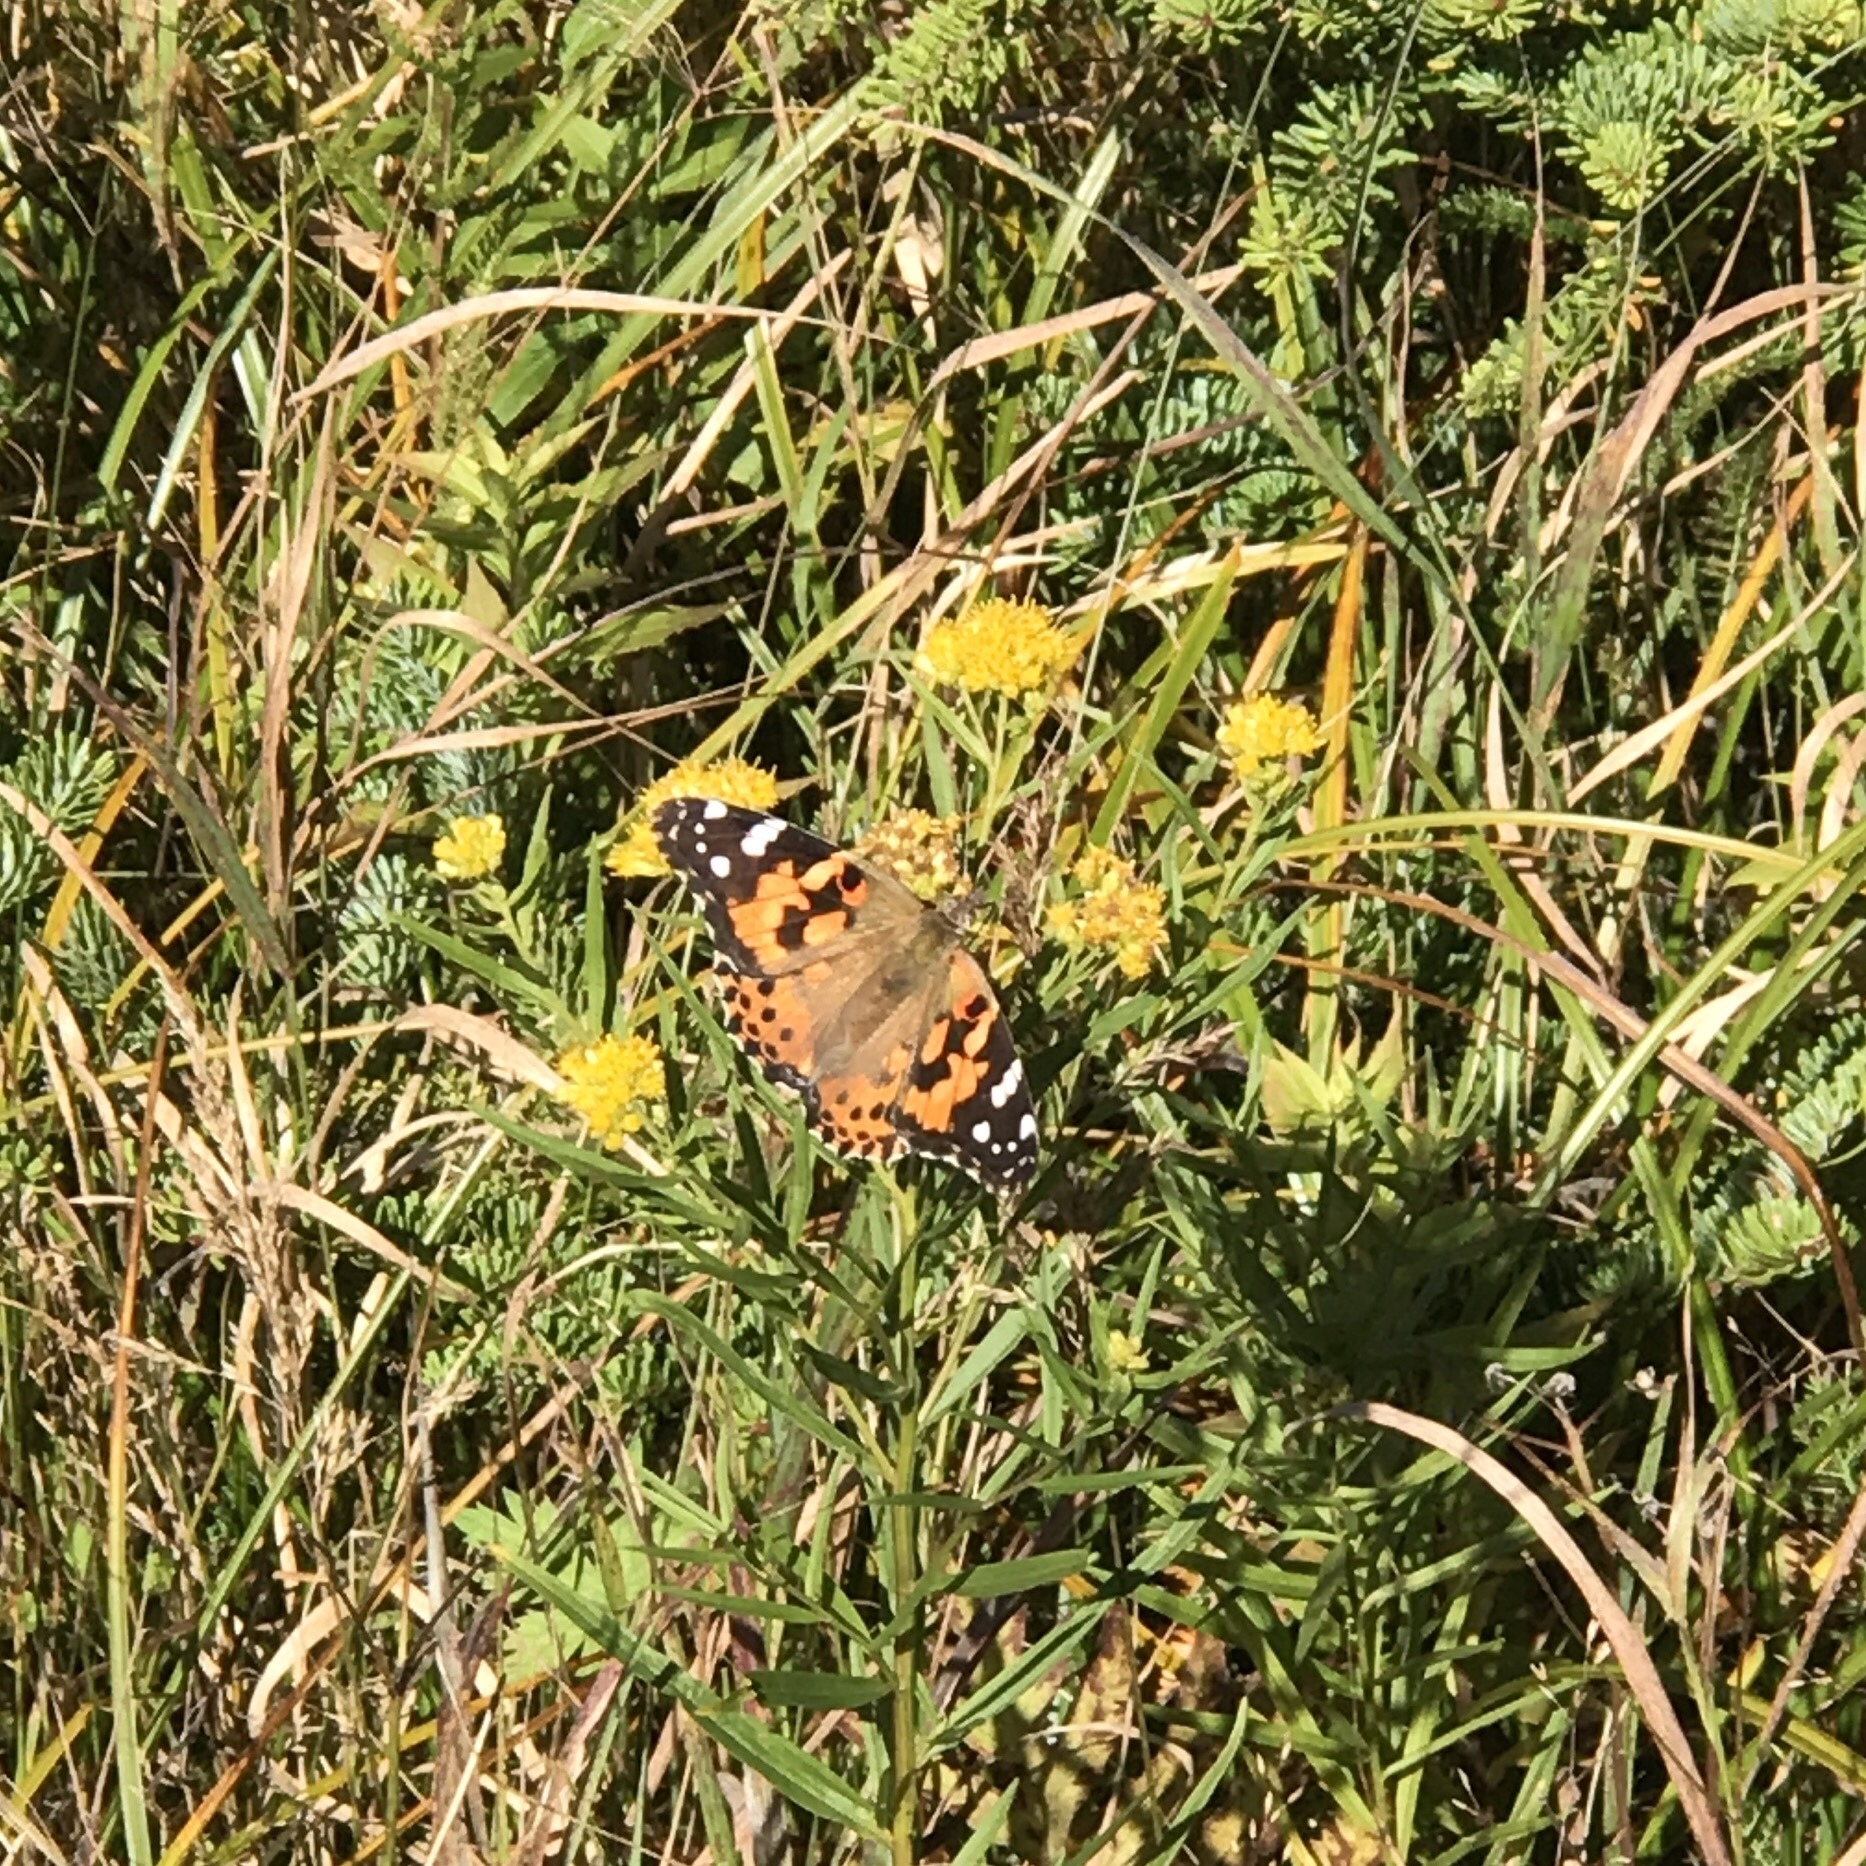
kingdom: Animalia
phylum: Arthropoda
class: Insecta
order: Lepidoptera
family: Nymphalidae
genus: Vanessa
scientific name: Vanessa cardui
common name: Painted lady
